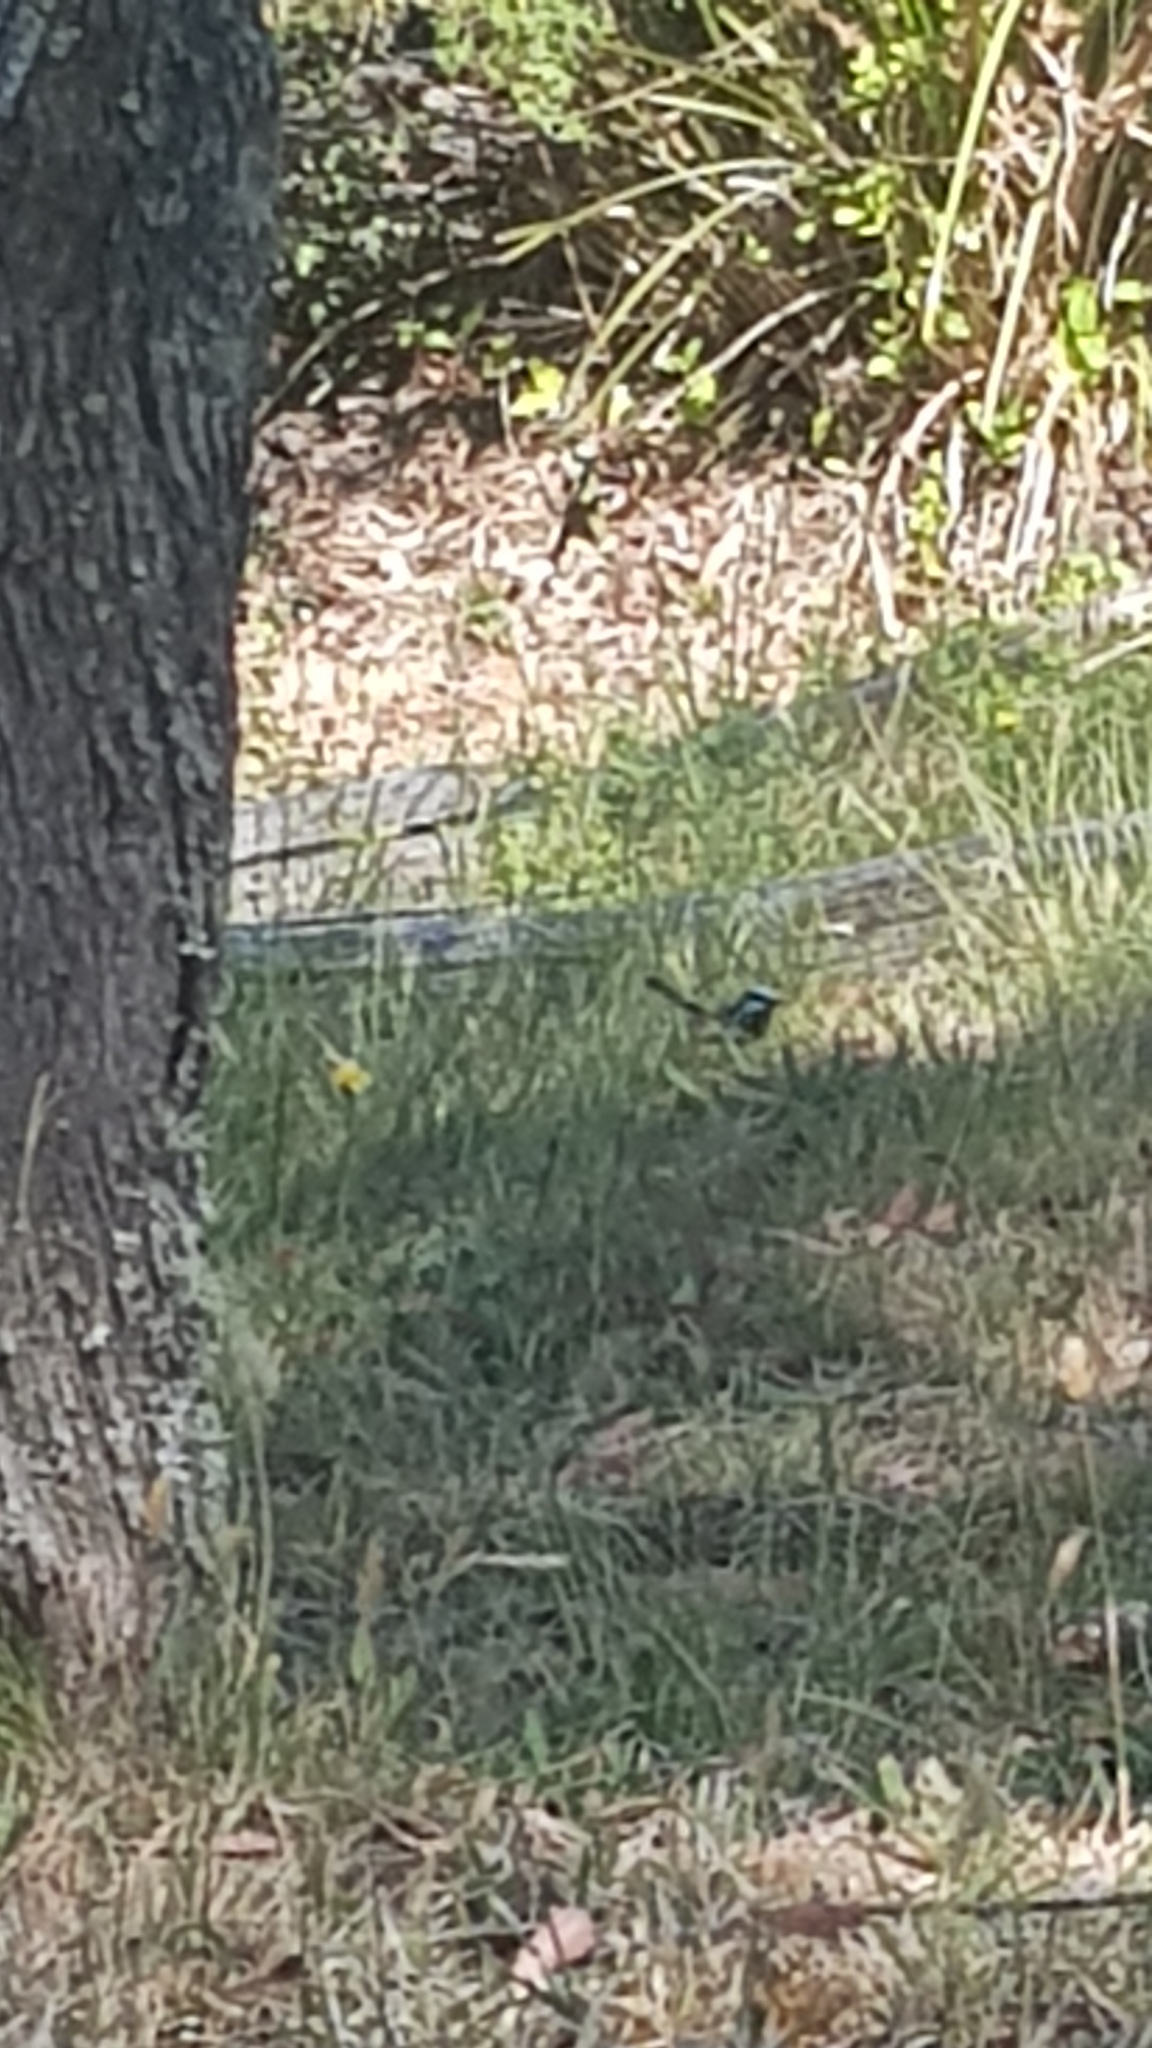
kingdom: Animalia
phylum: Chordata
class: Aves
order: Passeriformes
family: Maluridae
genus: Malurus
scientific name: Malurus cyaneus
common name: Superb fairywren
